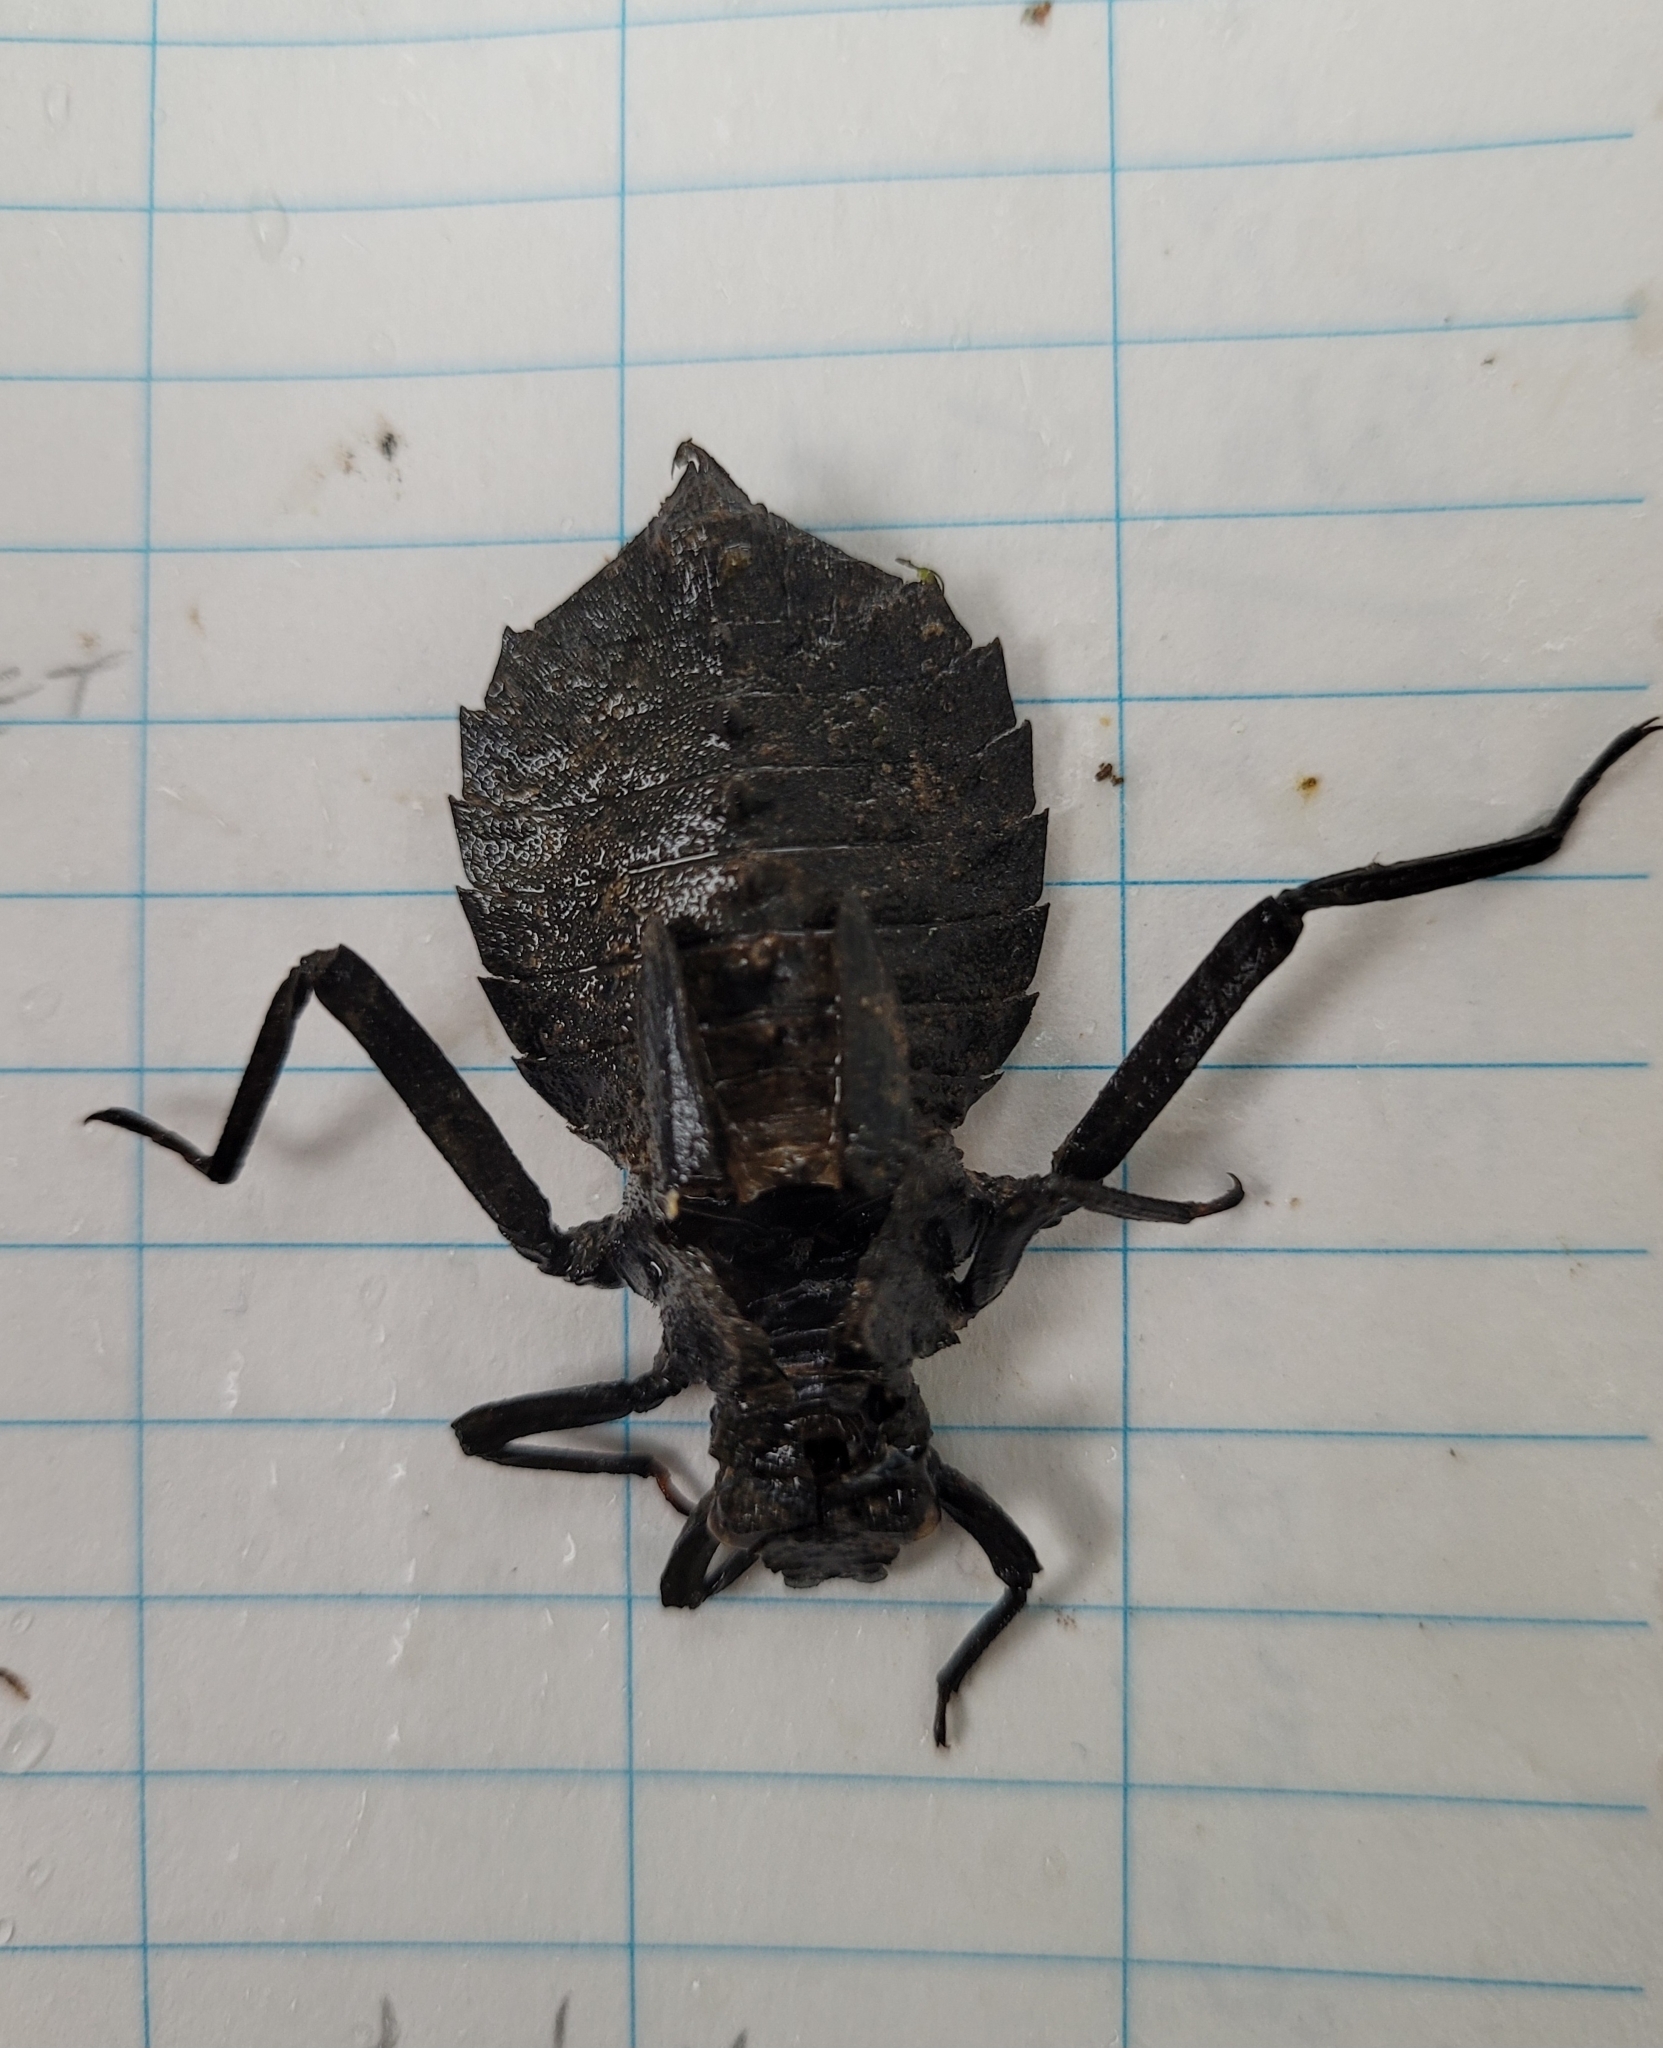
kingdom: Animalia
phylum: Arthropoda
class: Insecta
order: Odonata
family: Gomphidae
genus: Hagenius
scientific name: Hagenius brevistylus
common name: Dragonhunter
